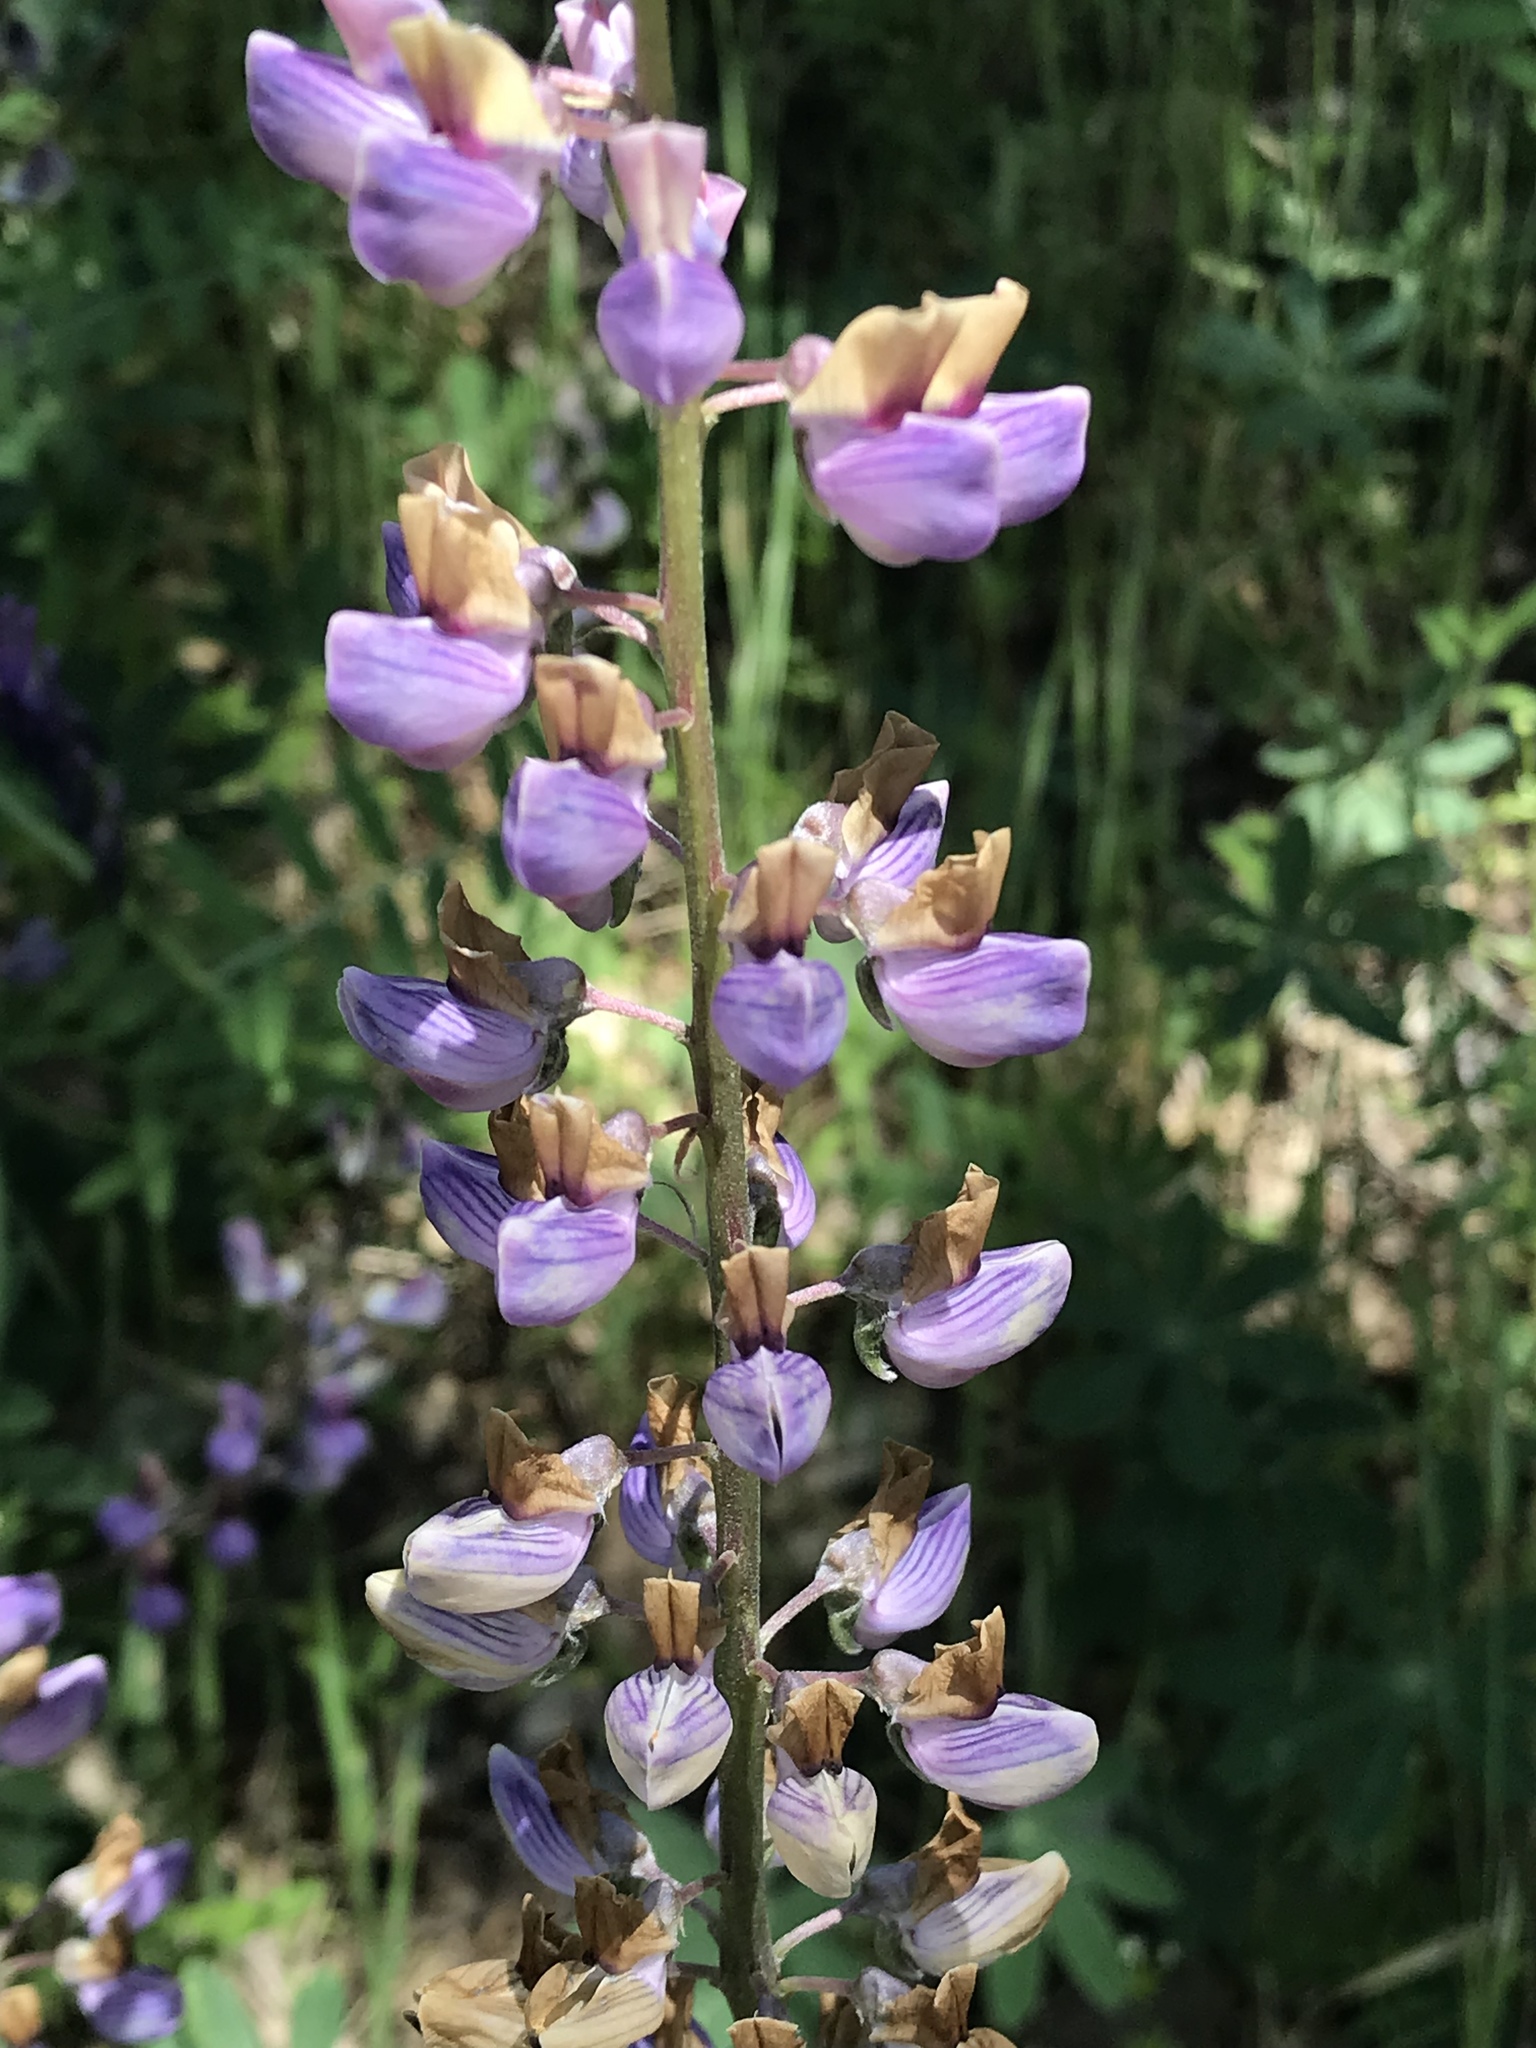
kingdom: Plantae
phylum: Tracheophyta
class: Magnoliopsida
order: Fabales
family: Fabaceae
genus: Lupinus
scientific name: Lupinus latifolius
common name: Broad-leaved lupine
